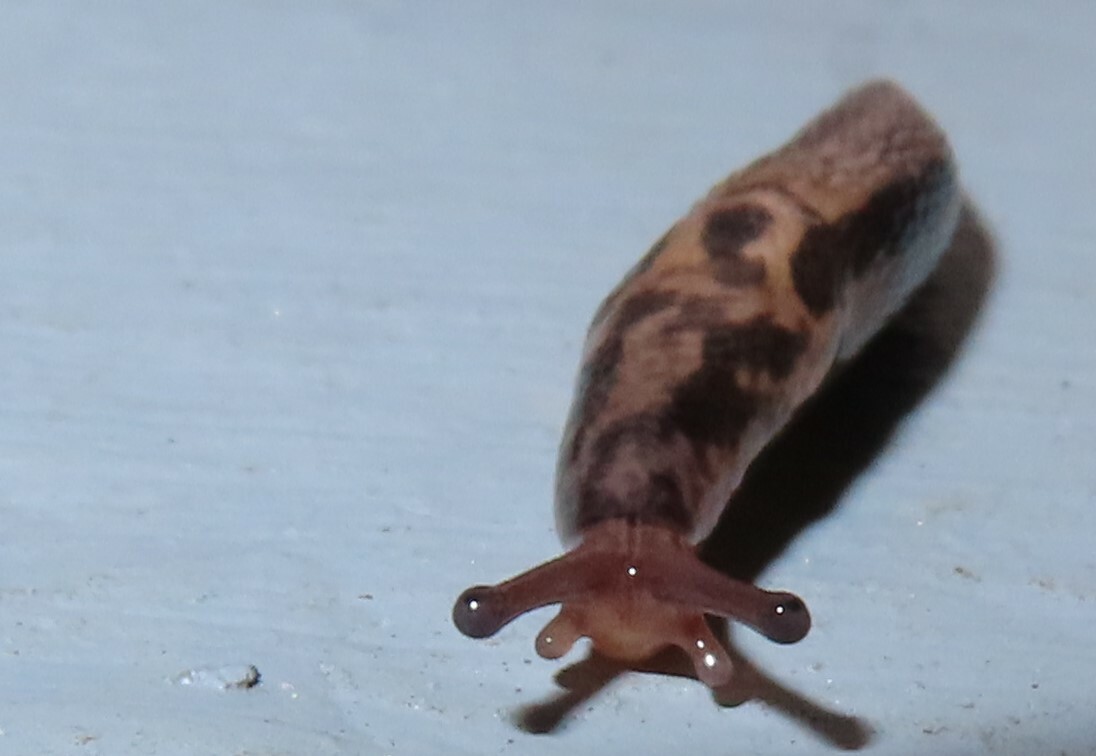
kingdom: Animalia
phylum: Mollusca
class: Gastropoda
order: Stylommatophora
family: Limacidae
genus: Limax
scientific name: Limax maximus
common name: Great grey slug
